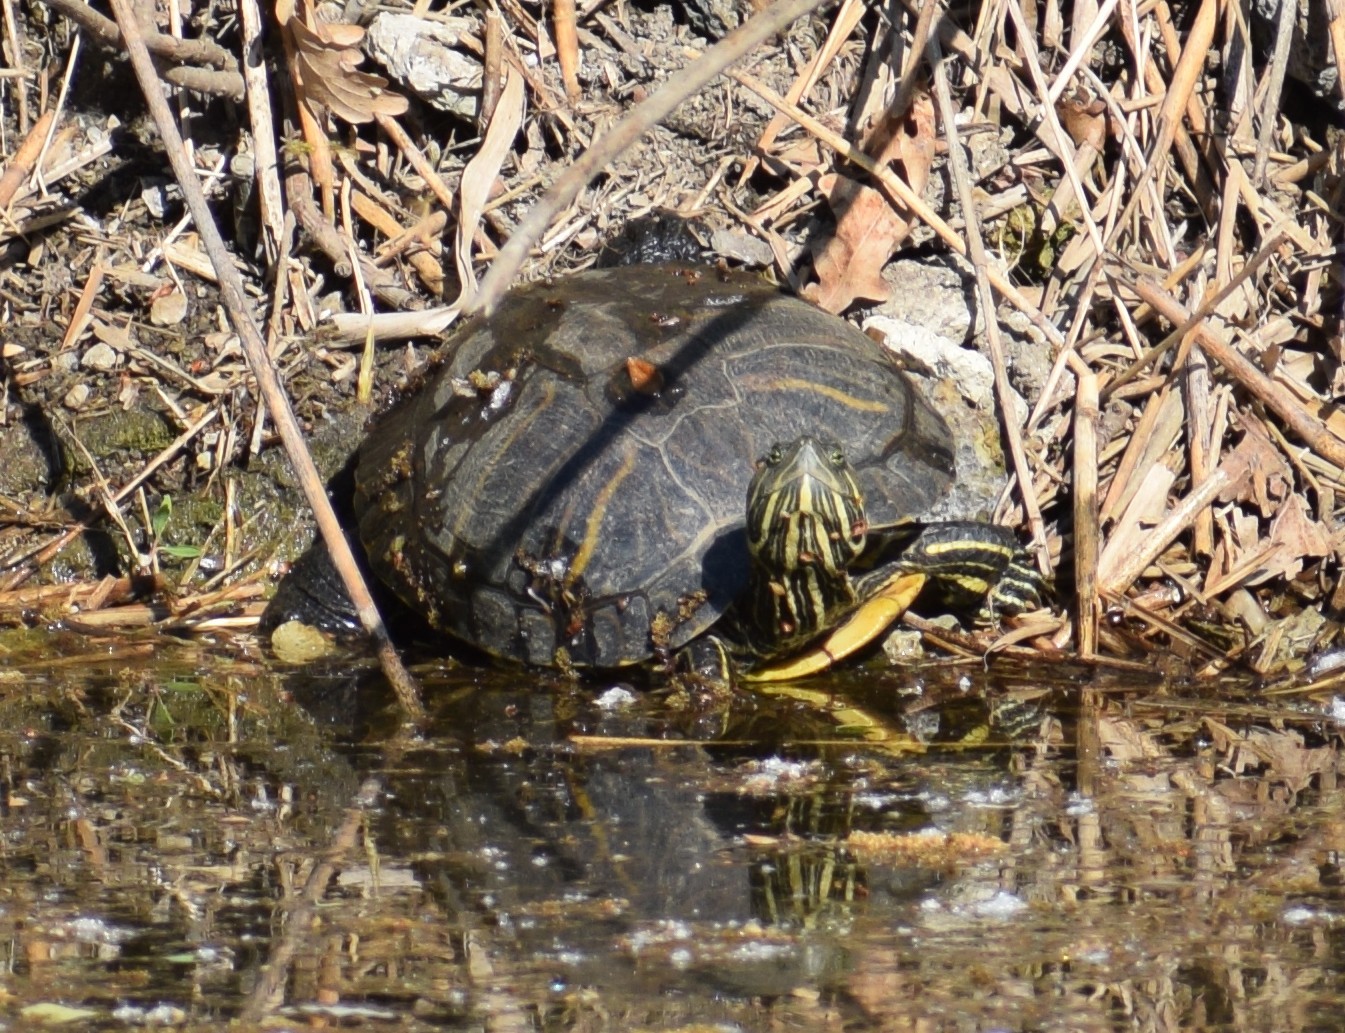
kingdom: Animalia
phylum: Chordata
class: Testudines
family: Emydidae
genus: Trachemys
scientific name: Trachemys scripta
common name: Slider
